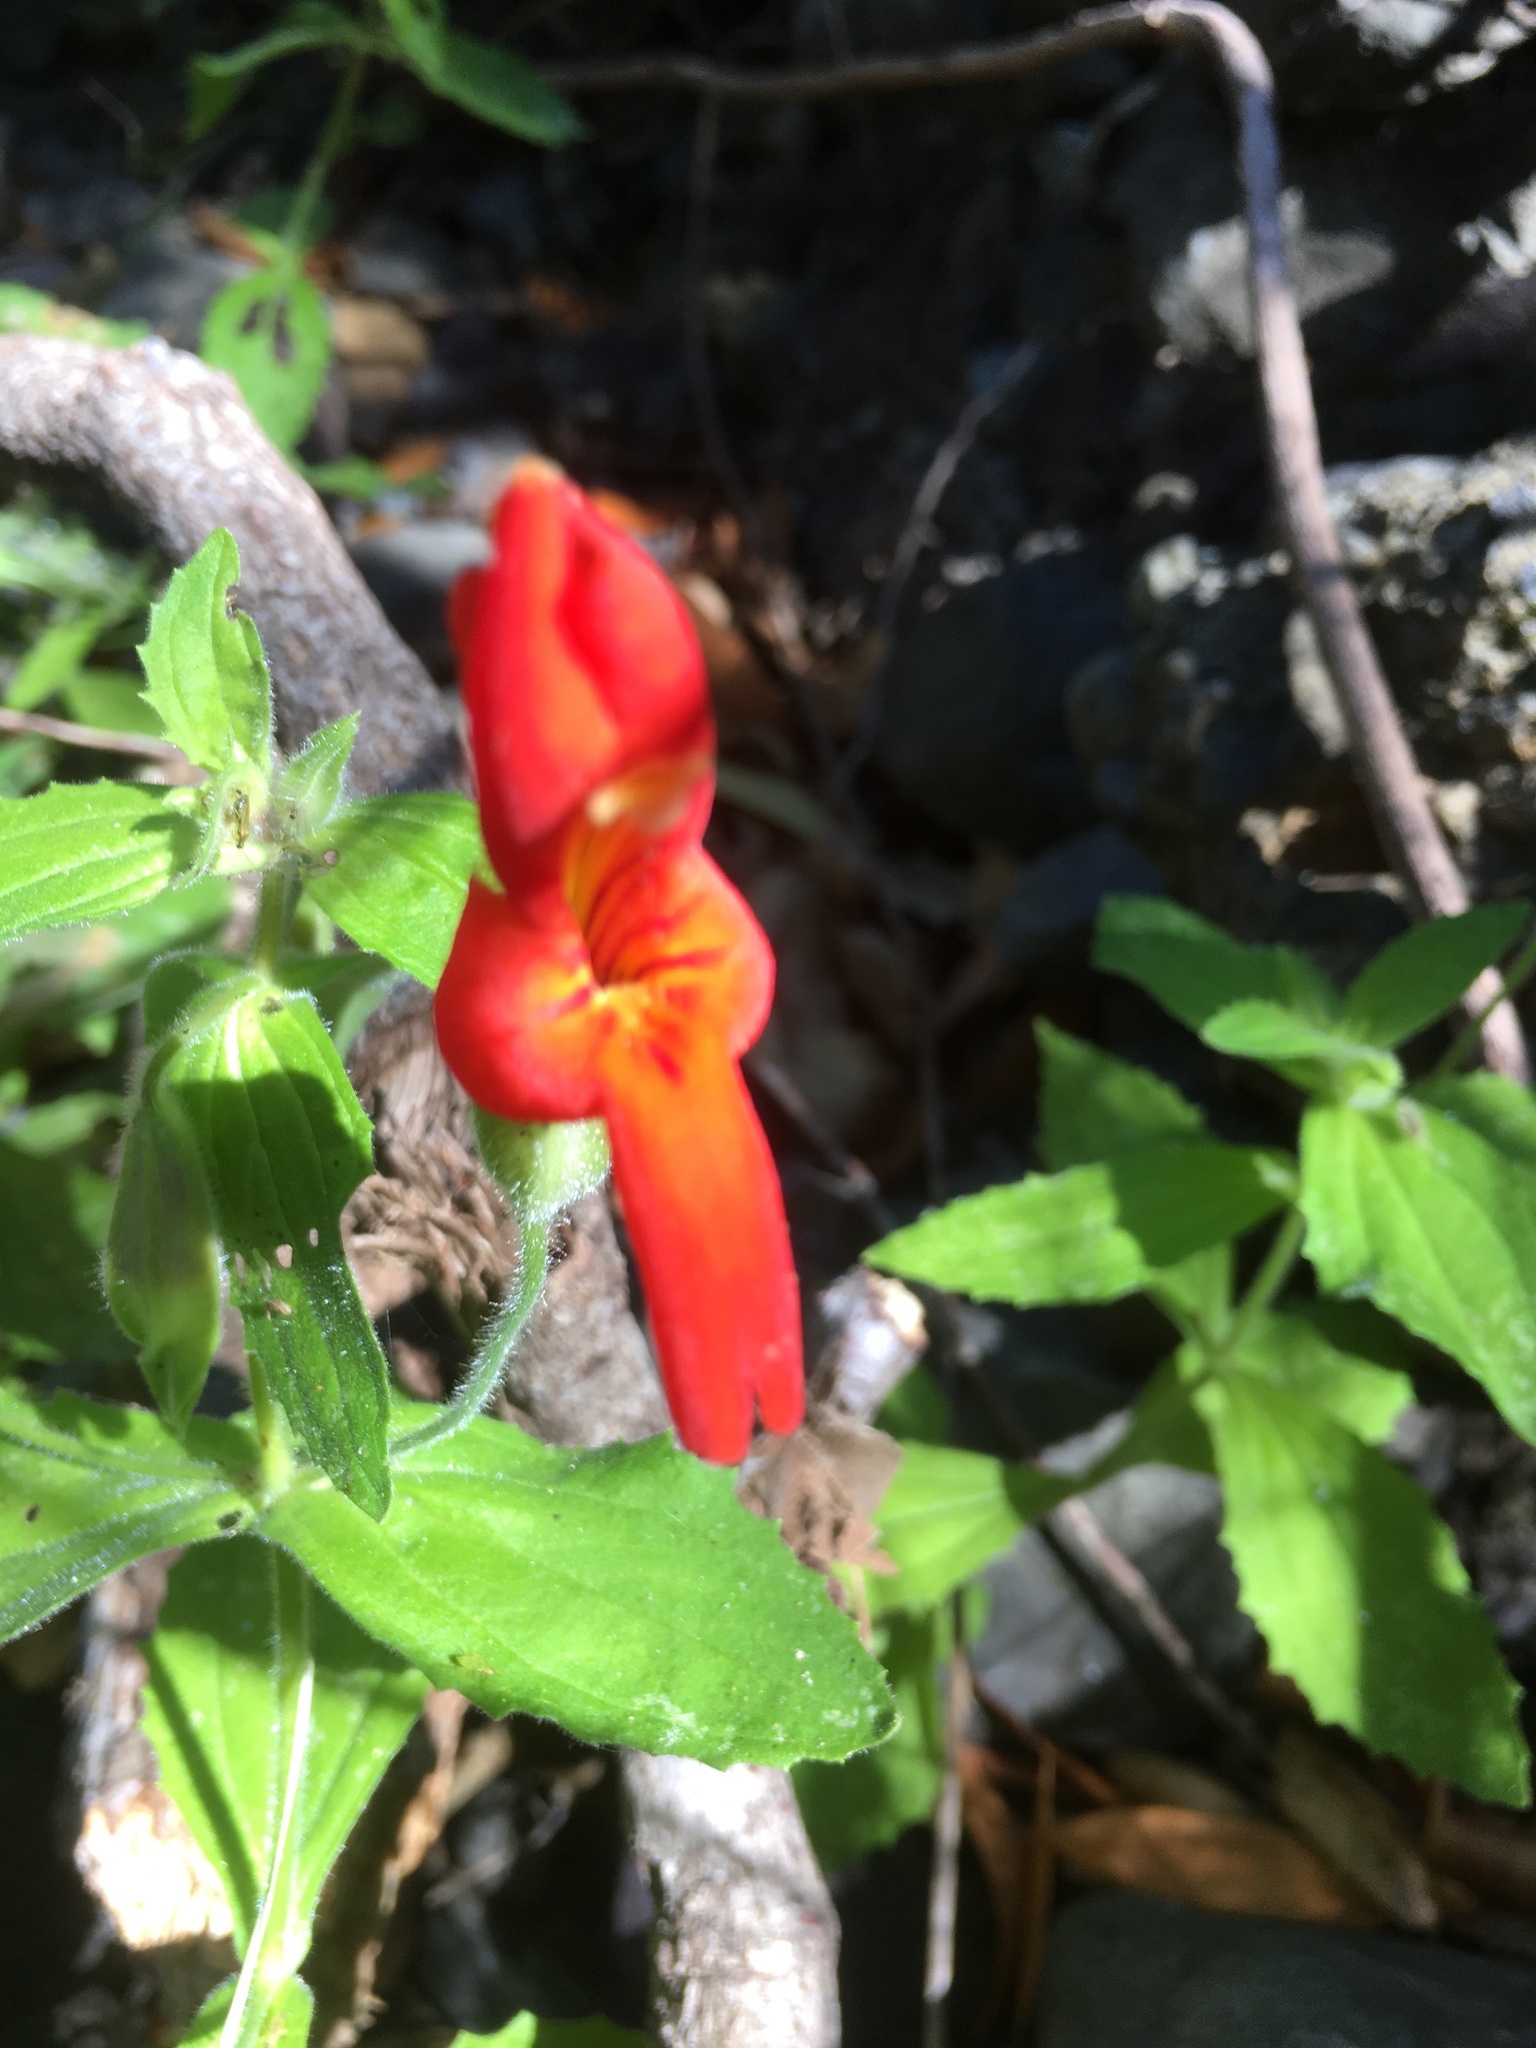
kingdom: Plantae
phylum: Tracheophyta
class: Magnoliopsida
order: Lamiales
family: Phrymaceae
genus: Erythranthe
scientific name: Erythranthe cardinalis
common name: Scarlet monkey-flower
